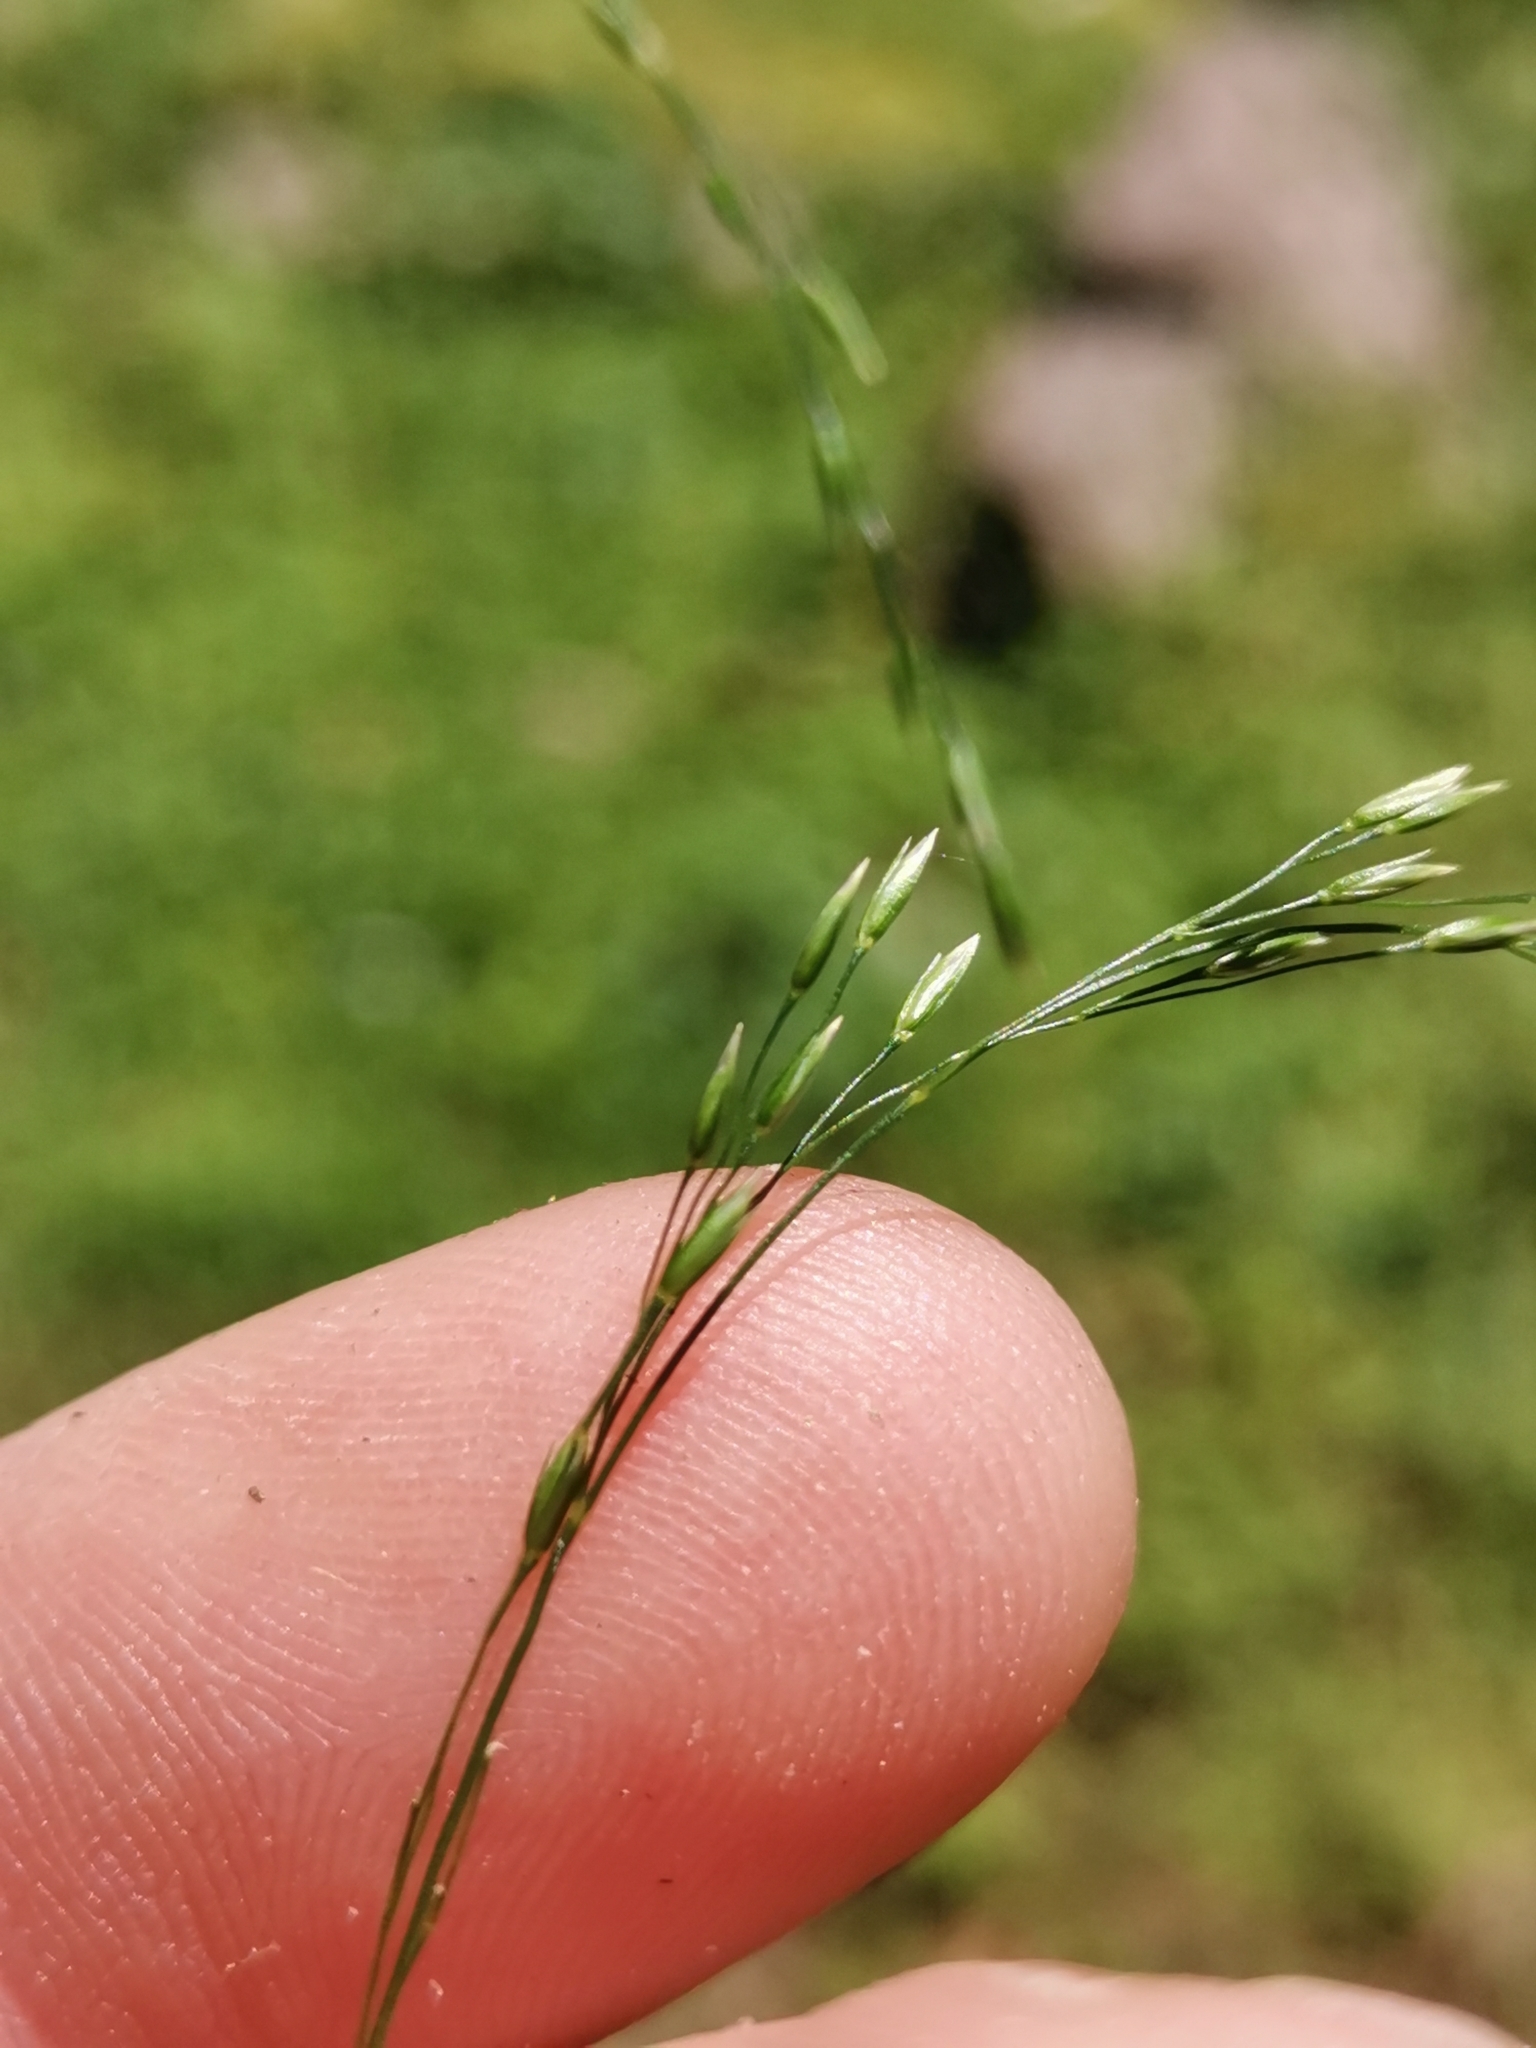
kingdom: Plantae
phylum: Tracheophyta
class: Liliopsida
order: Poales
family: Poaceae
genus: Poa
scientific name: Poa nemoralis
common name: Wood bluegrass
